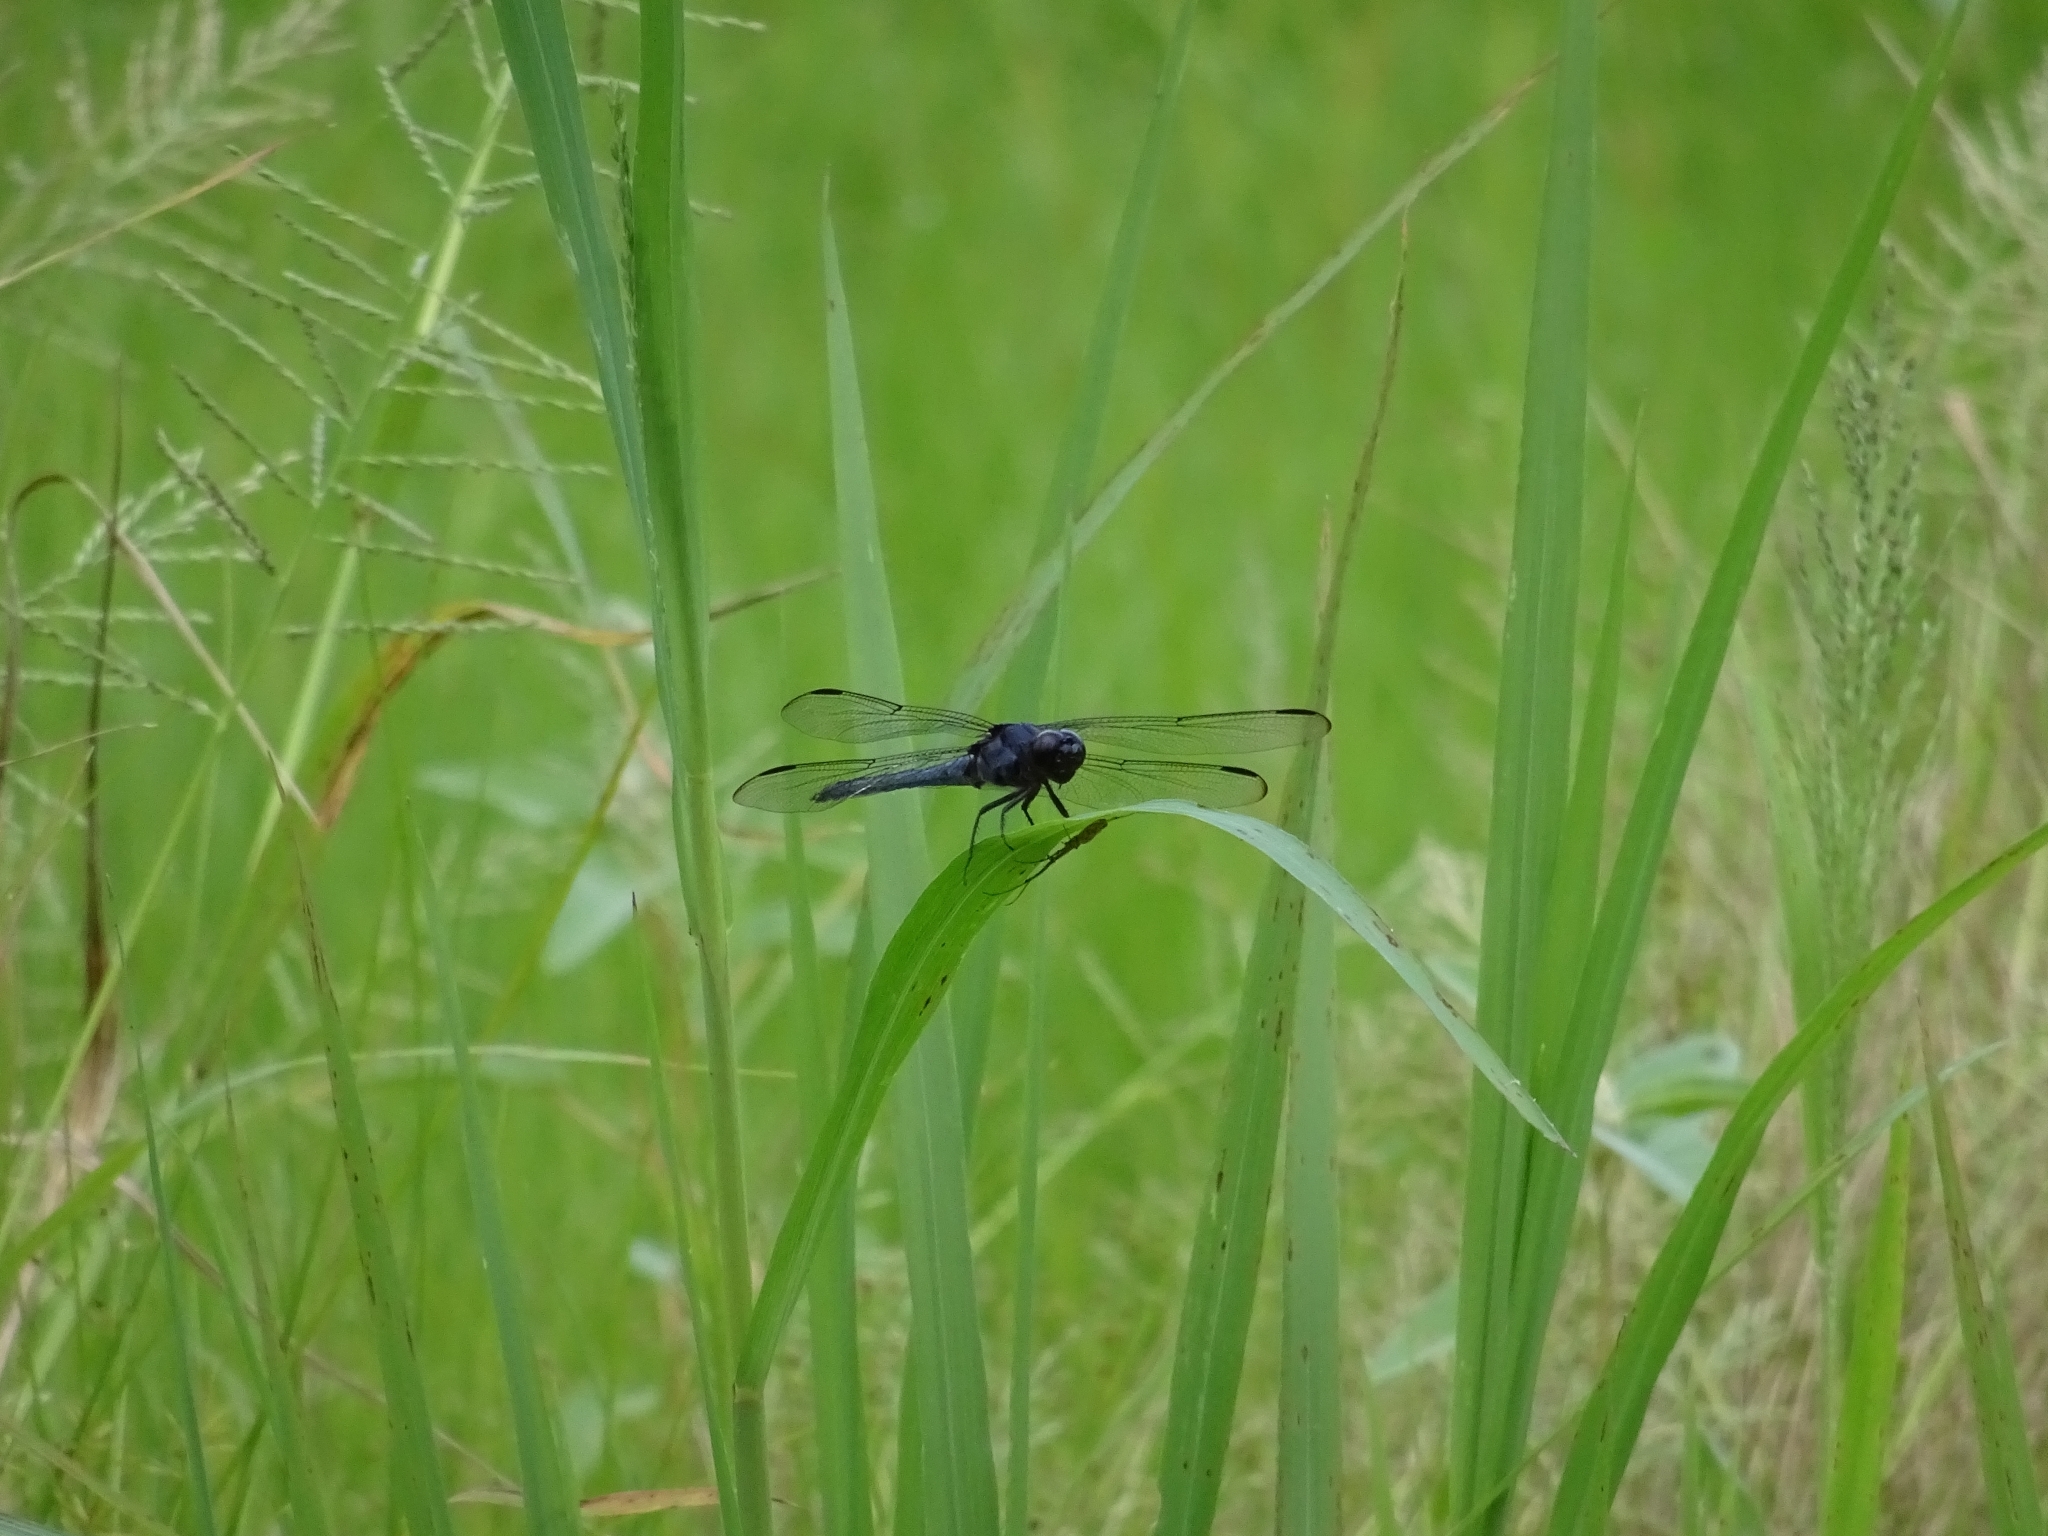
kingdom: Animalia
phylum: Arthropoda
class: Insecta
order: Odonata
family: Libellulidae
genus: Libellula
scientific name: Libellula incesta
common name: Slaty skimmer
